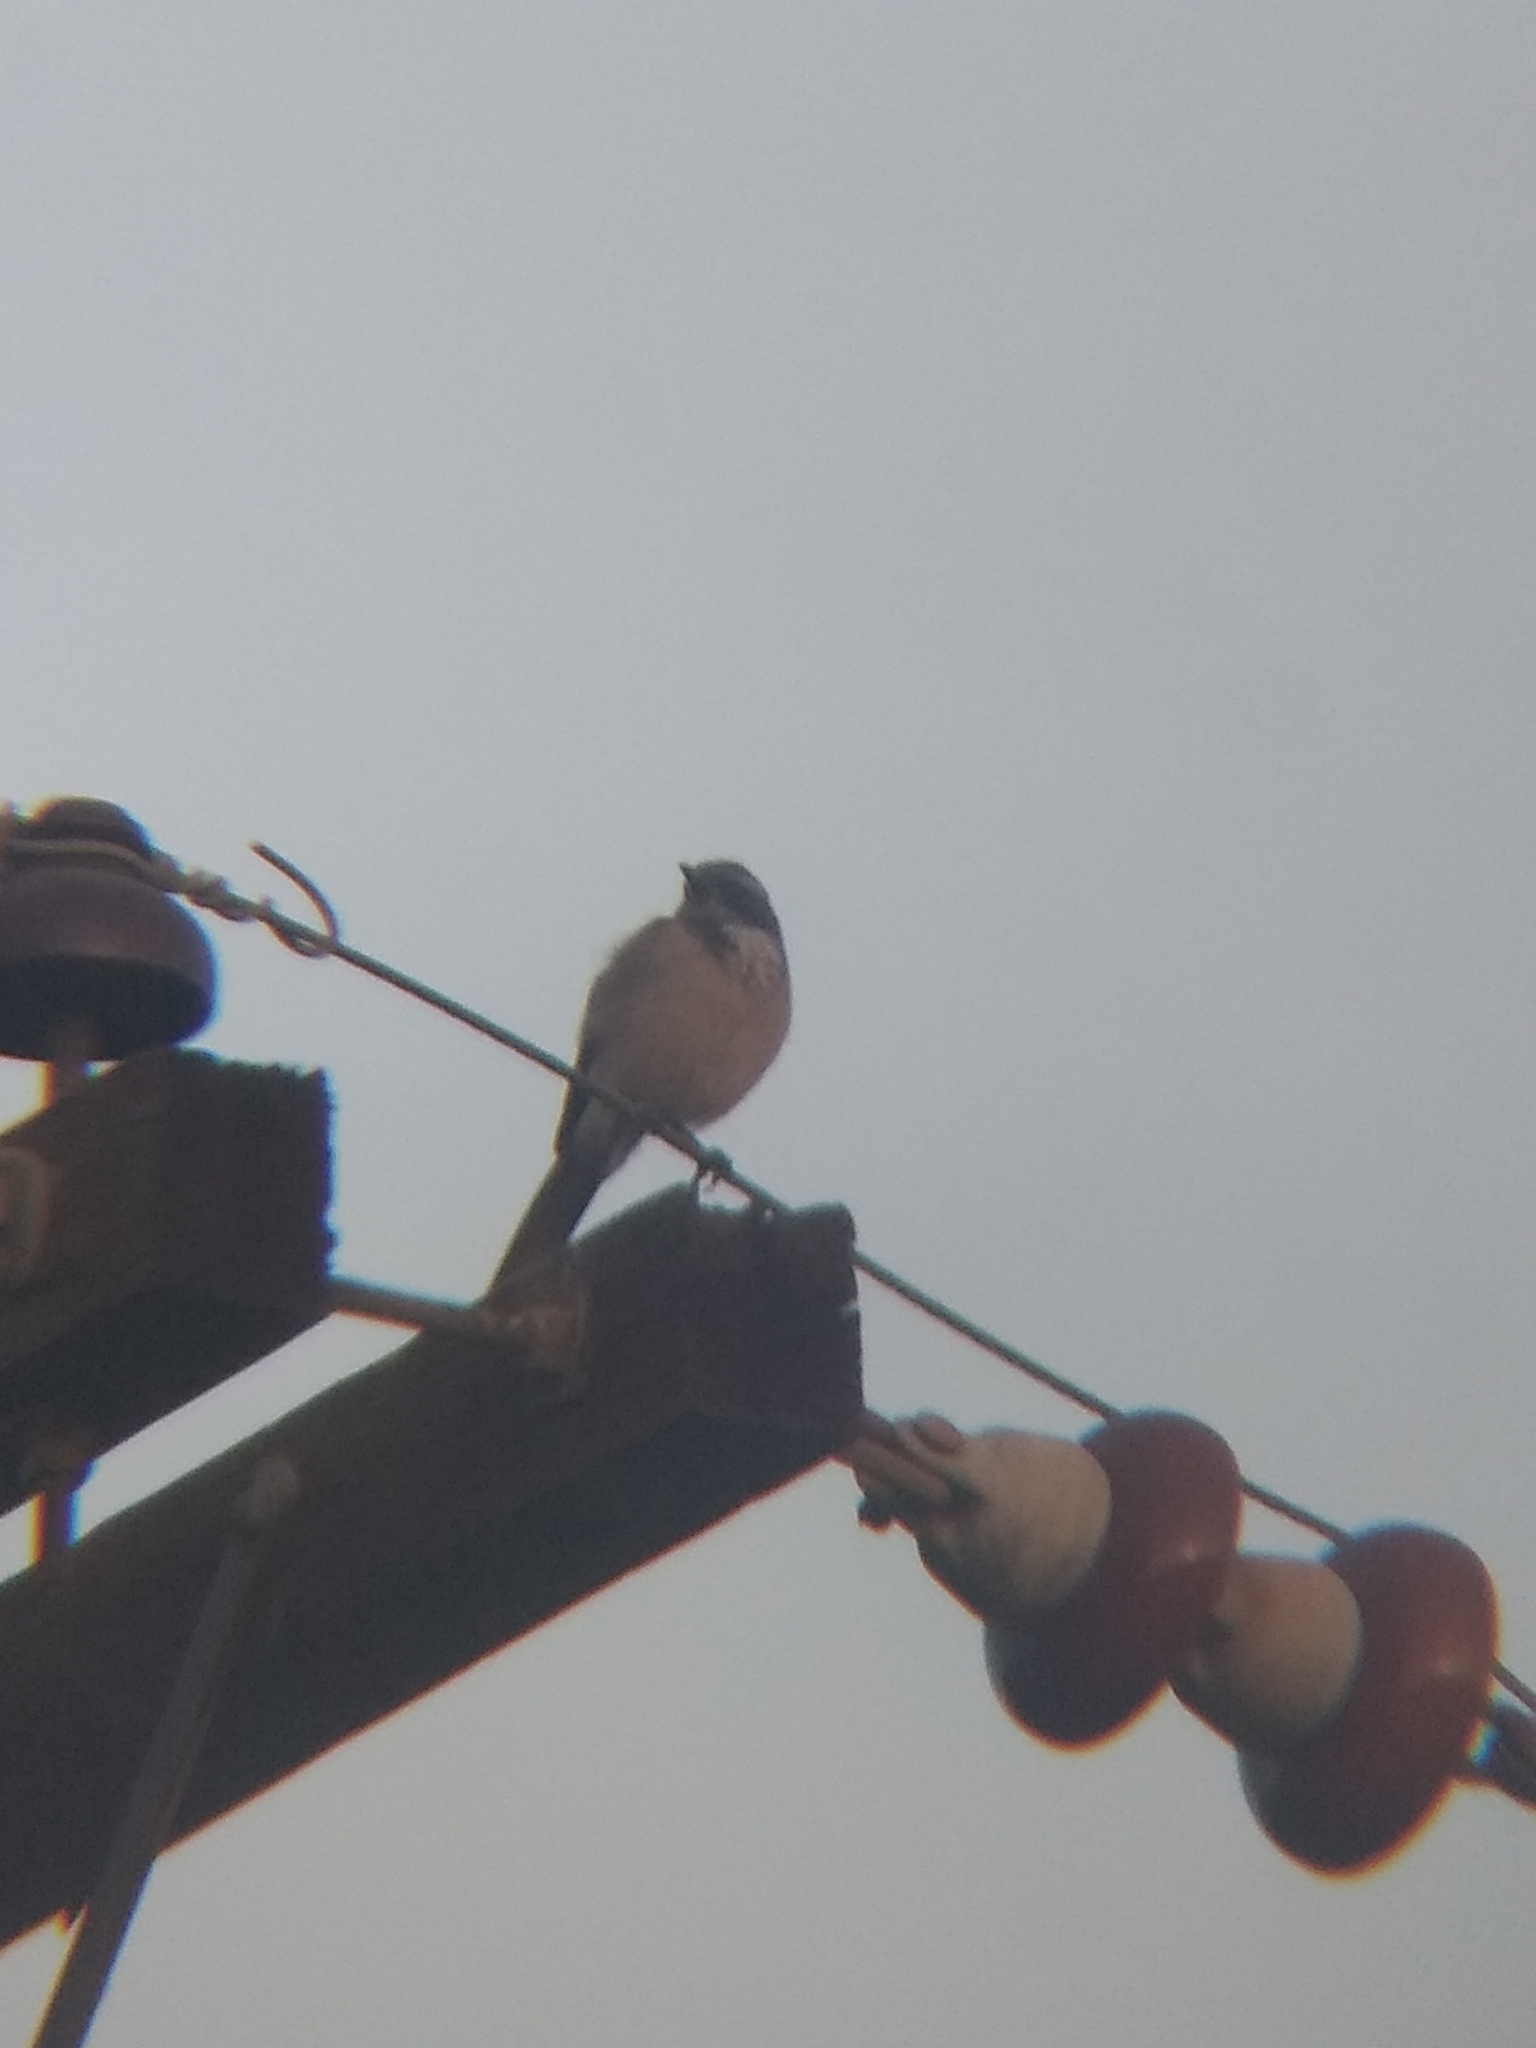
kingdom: Animalia
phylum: Chordata
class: Aves
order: Passeriformes
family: Corvidae
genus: Aphelocoma
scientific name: Aphelocoma californica
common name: California scrub-jay
